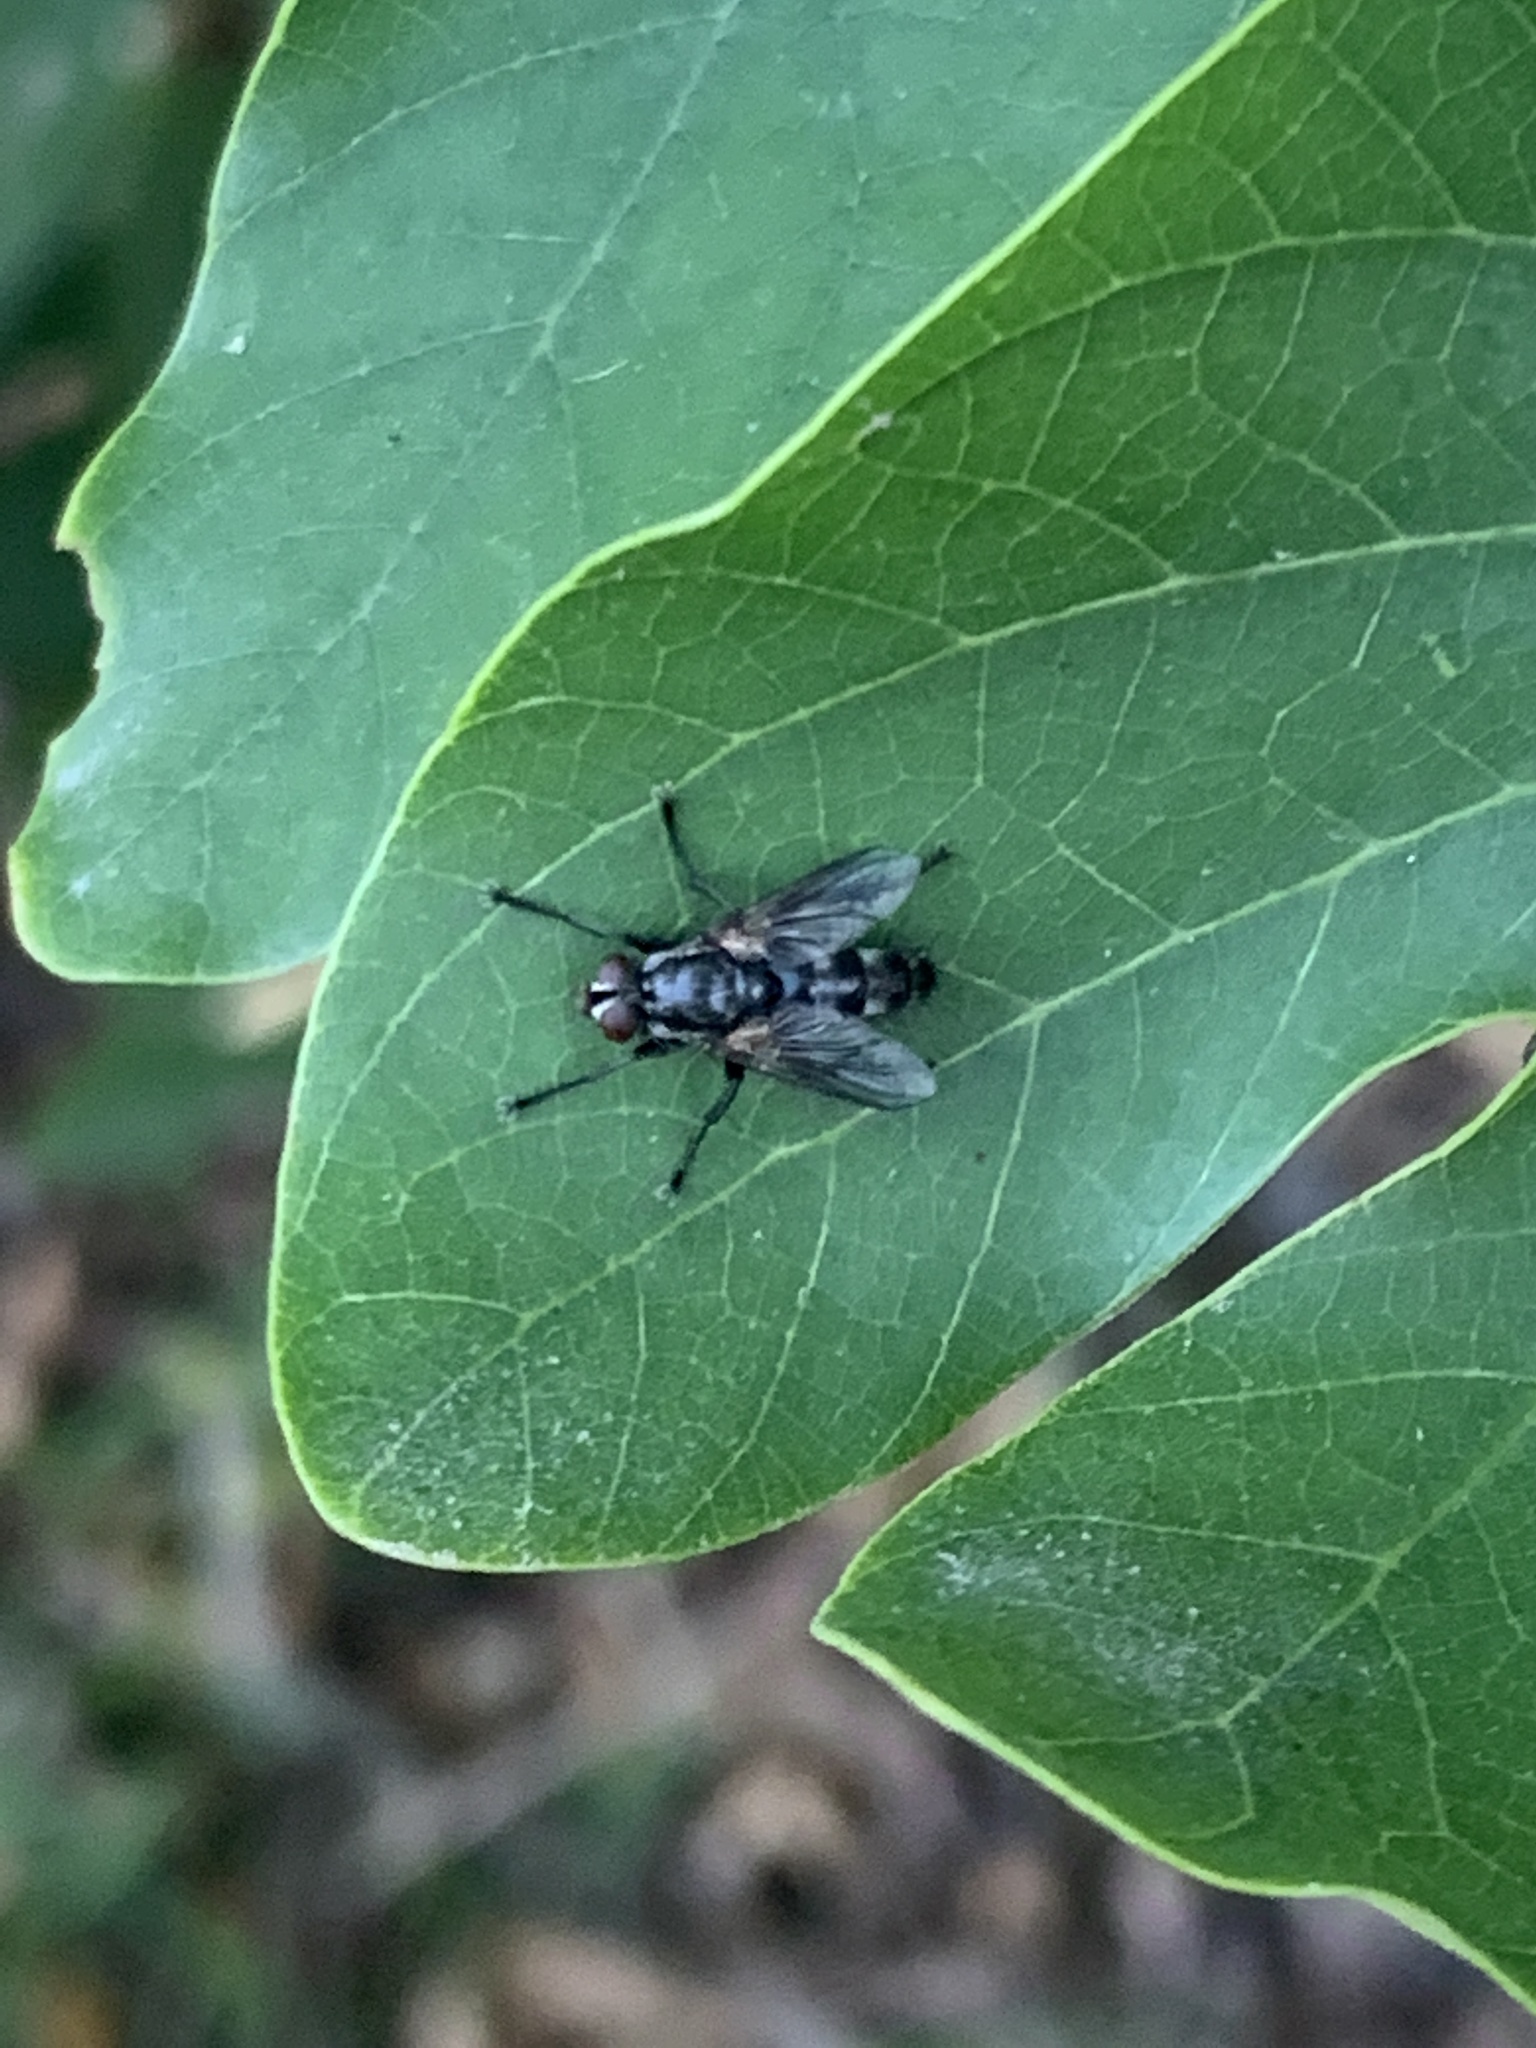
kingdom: Animalia
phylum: Arthropoda
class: Insecta
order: Diptera
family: Calliphoridae
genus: Stevenia
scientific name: Stevenia deceptoria
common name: Grizzled woodlouse-fly
